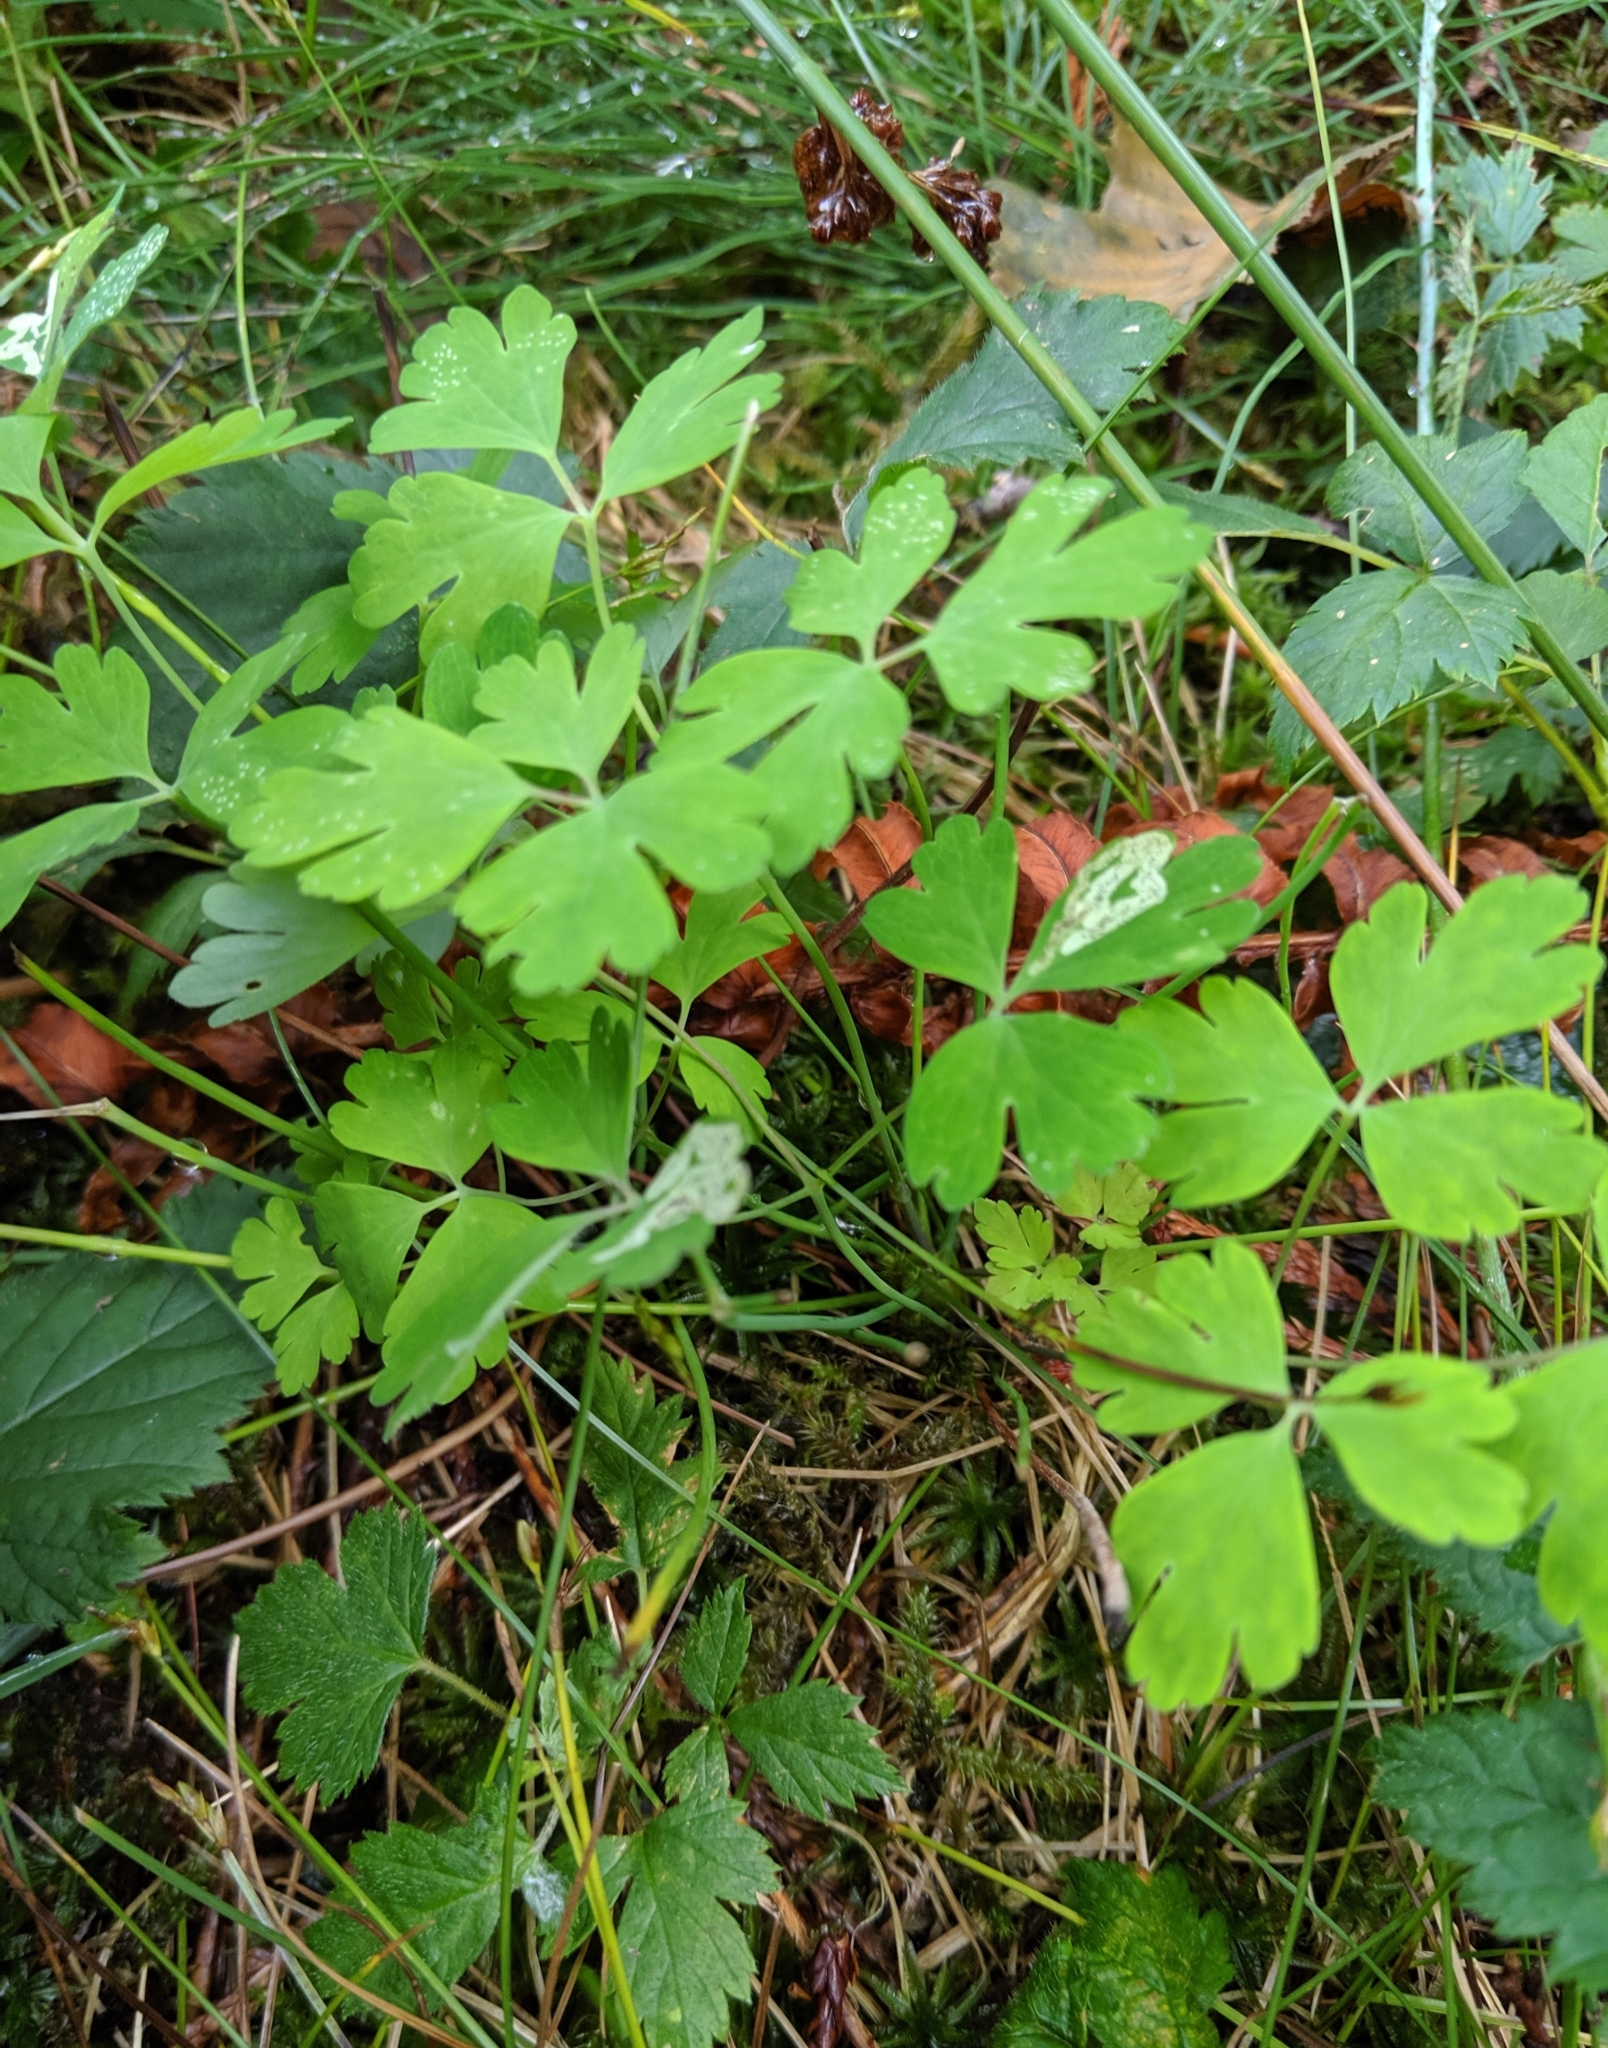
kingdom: Plantae
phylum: Tracheophyta
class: Magnoliopsida
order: Ranunculales
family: Ranunculaceae
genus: Aquilegia
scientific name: Aquilegia formosa
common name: Sitka columbine
